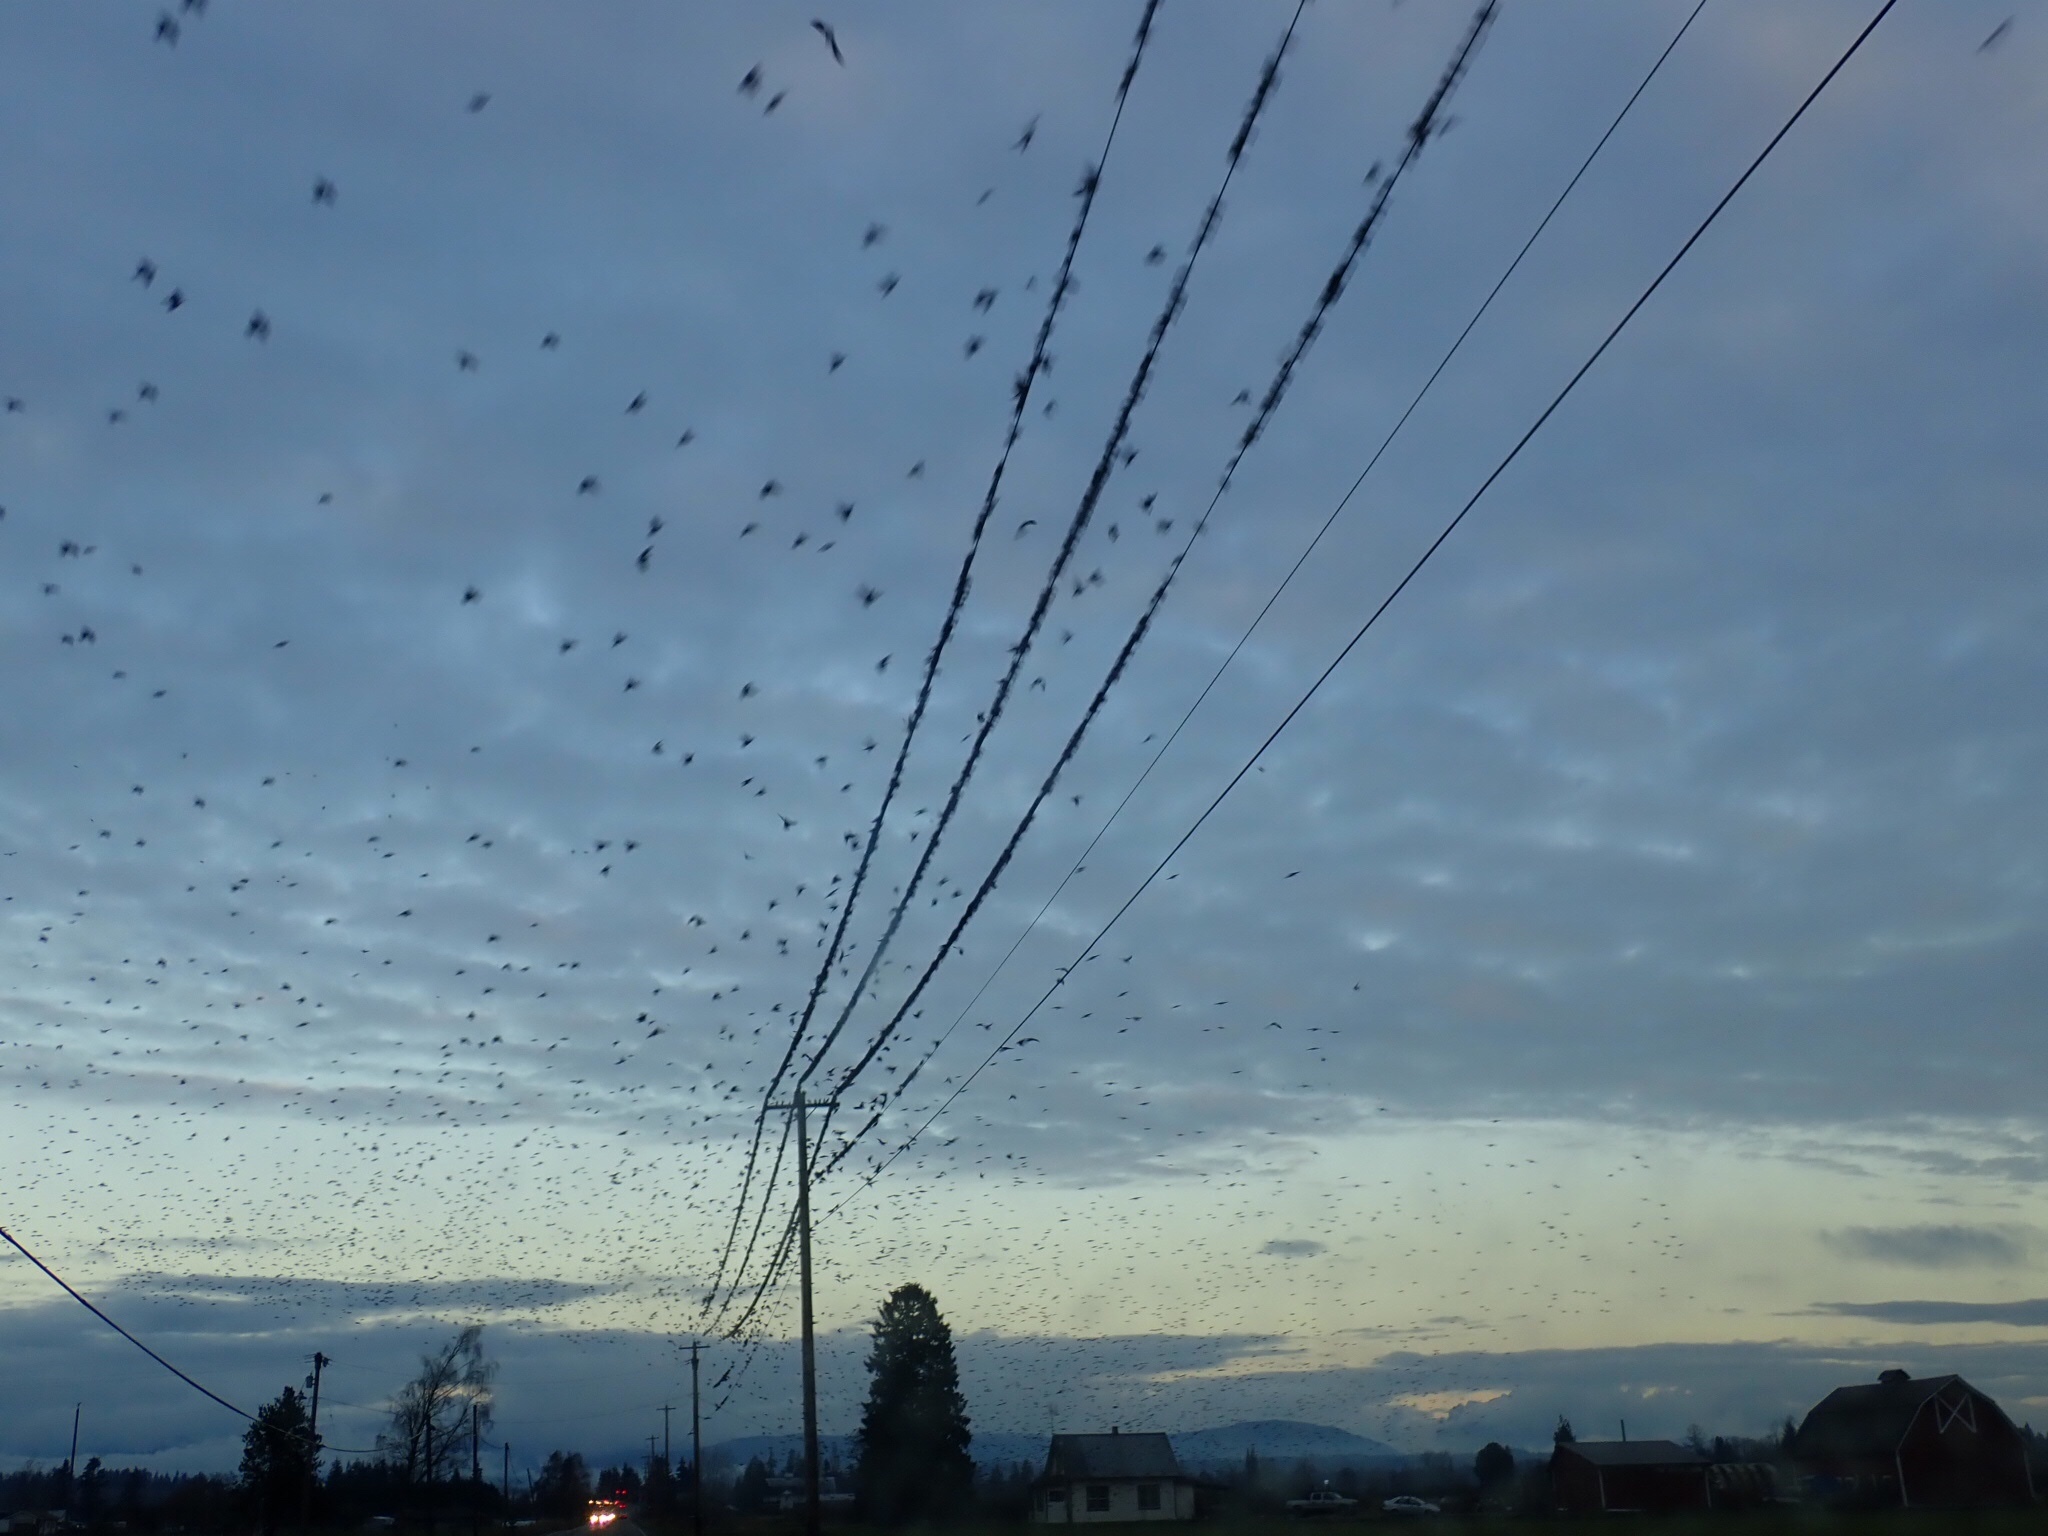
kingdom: Animalia
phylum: Chordata
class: Aves
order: Passeriformes
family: Sturnidae
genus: Sturnus
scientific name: Sturnus vulgaris
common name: Common starling
